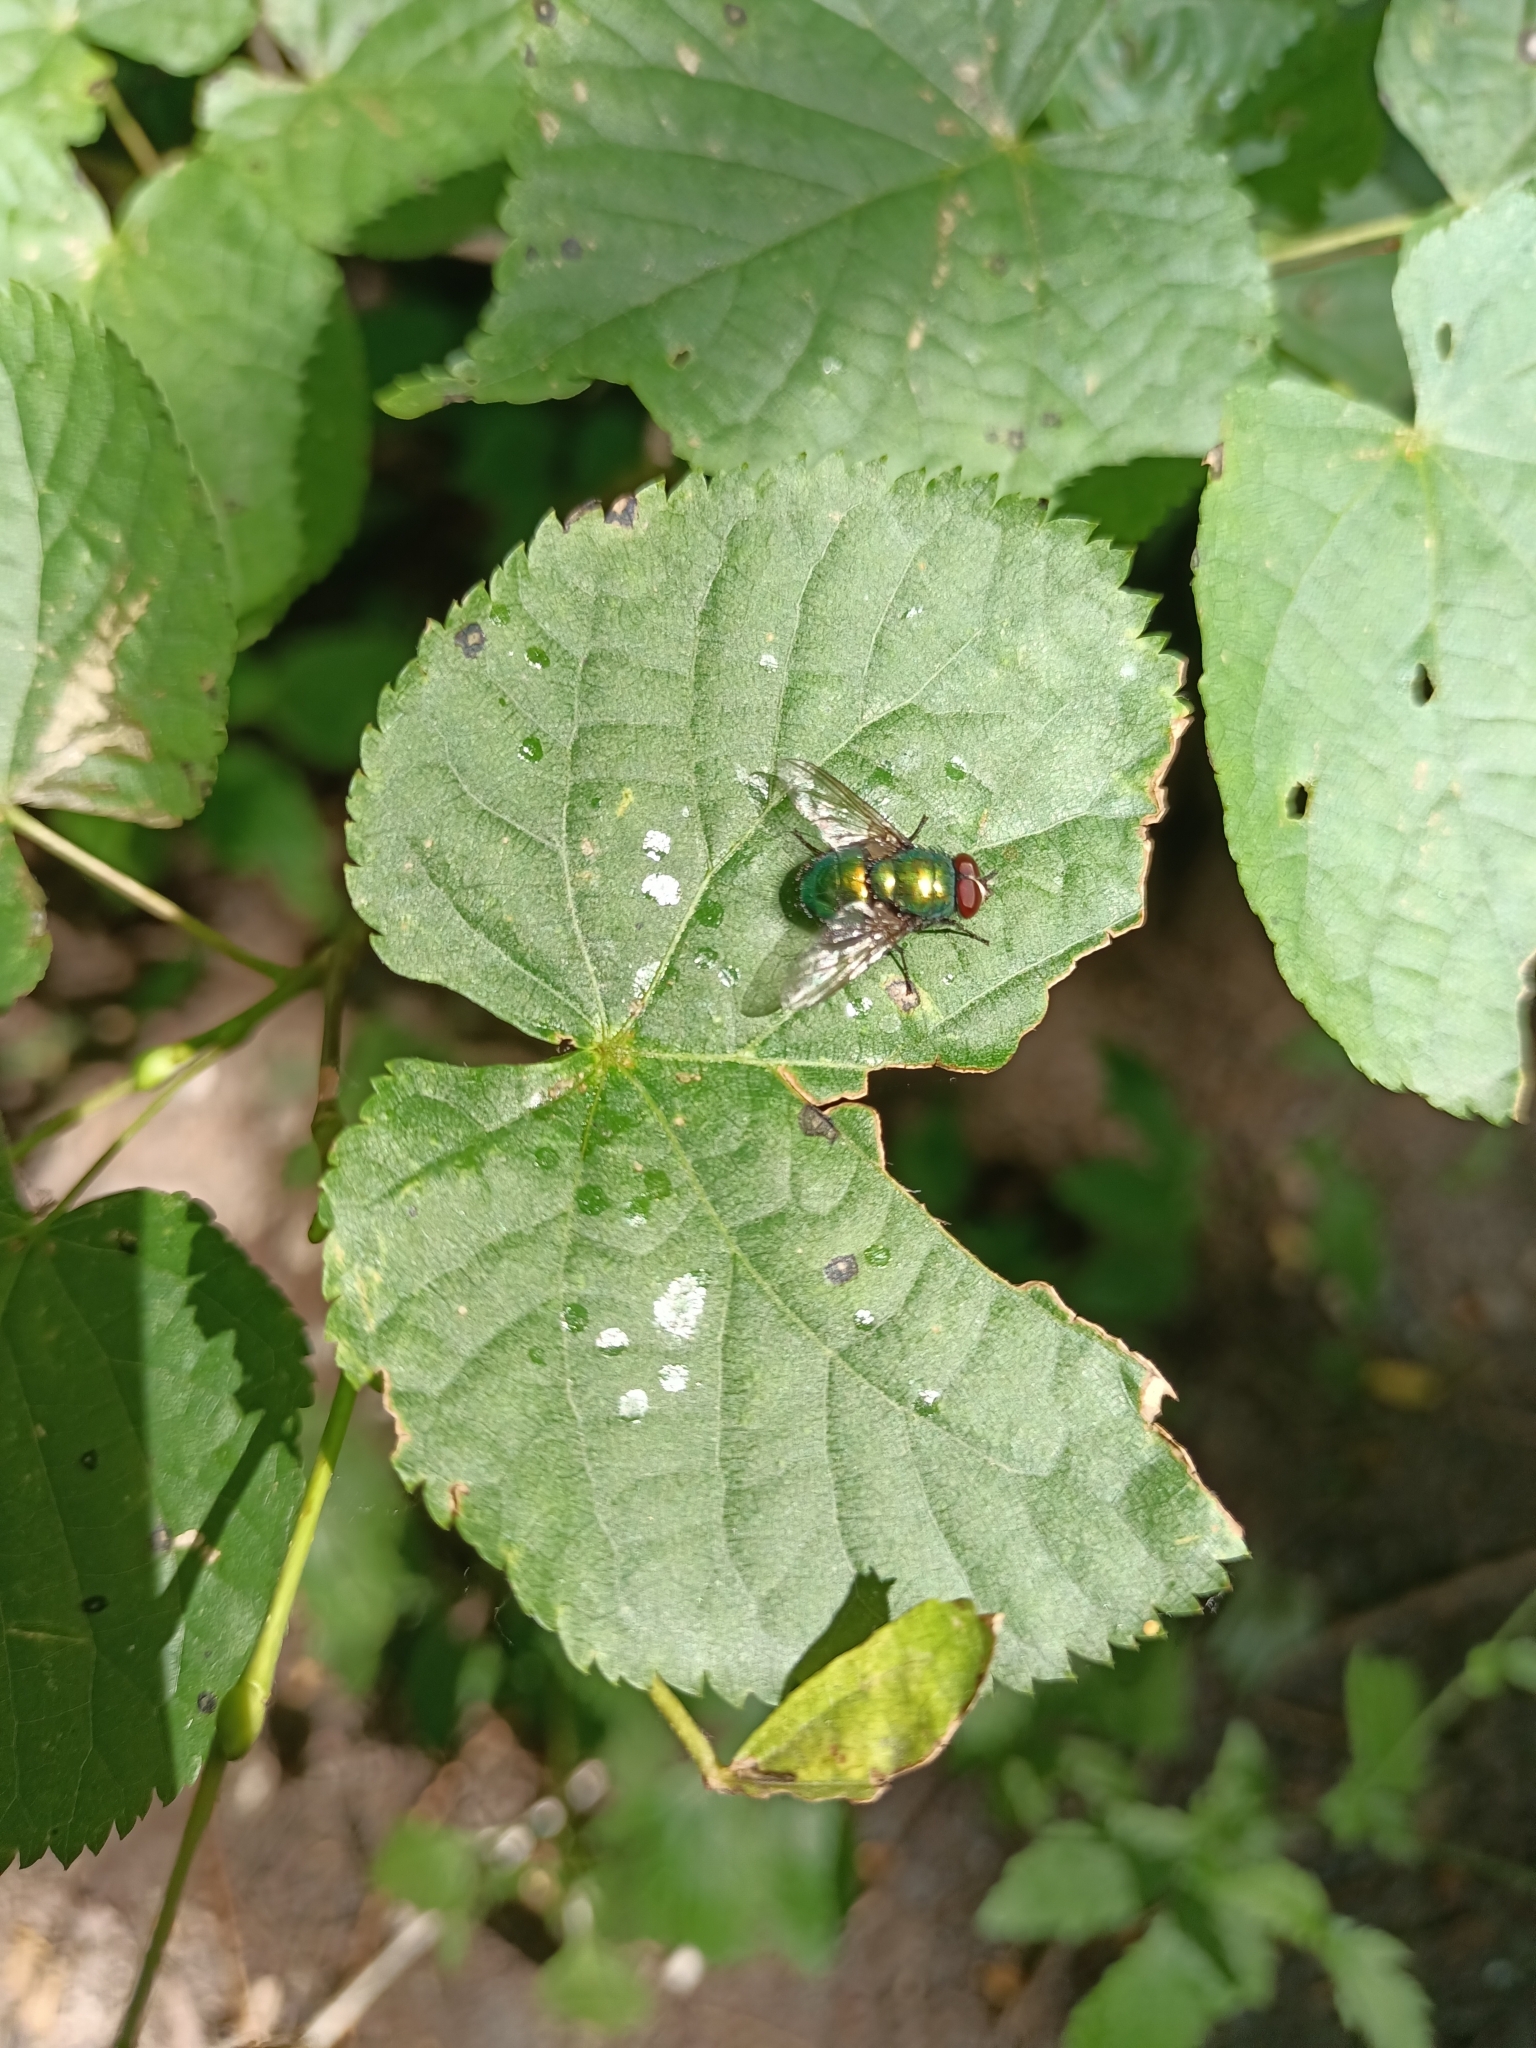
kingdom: Animalia
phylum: Arthropoda
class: Insecta
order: Diptera
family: Calliphoridae
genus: Lucilia
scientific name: Lucilia
